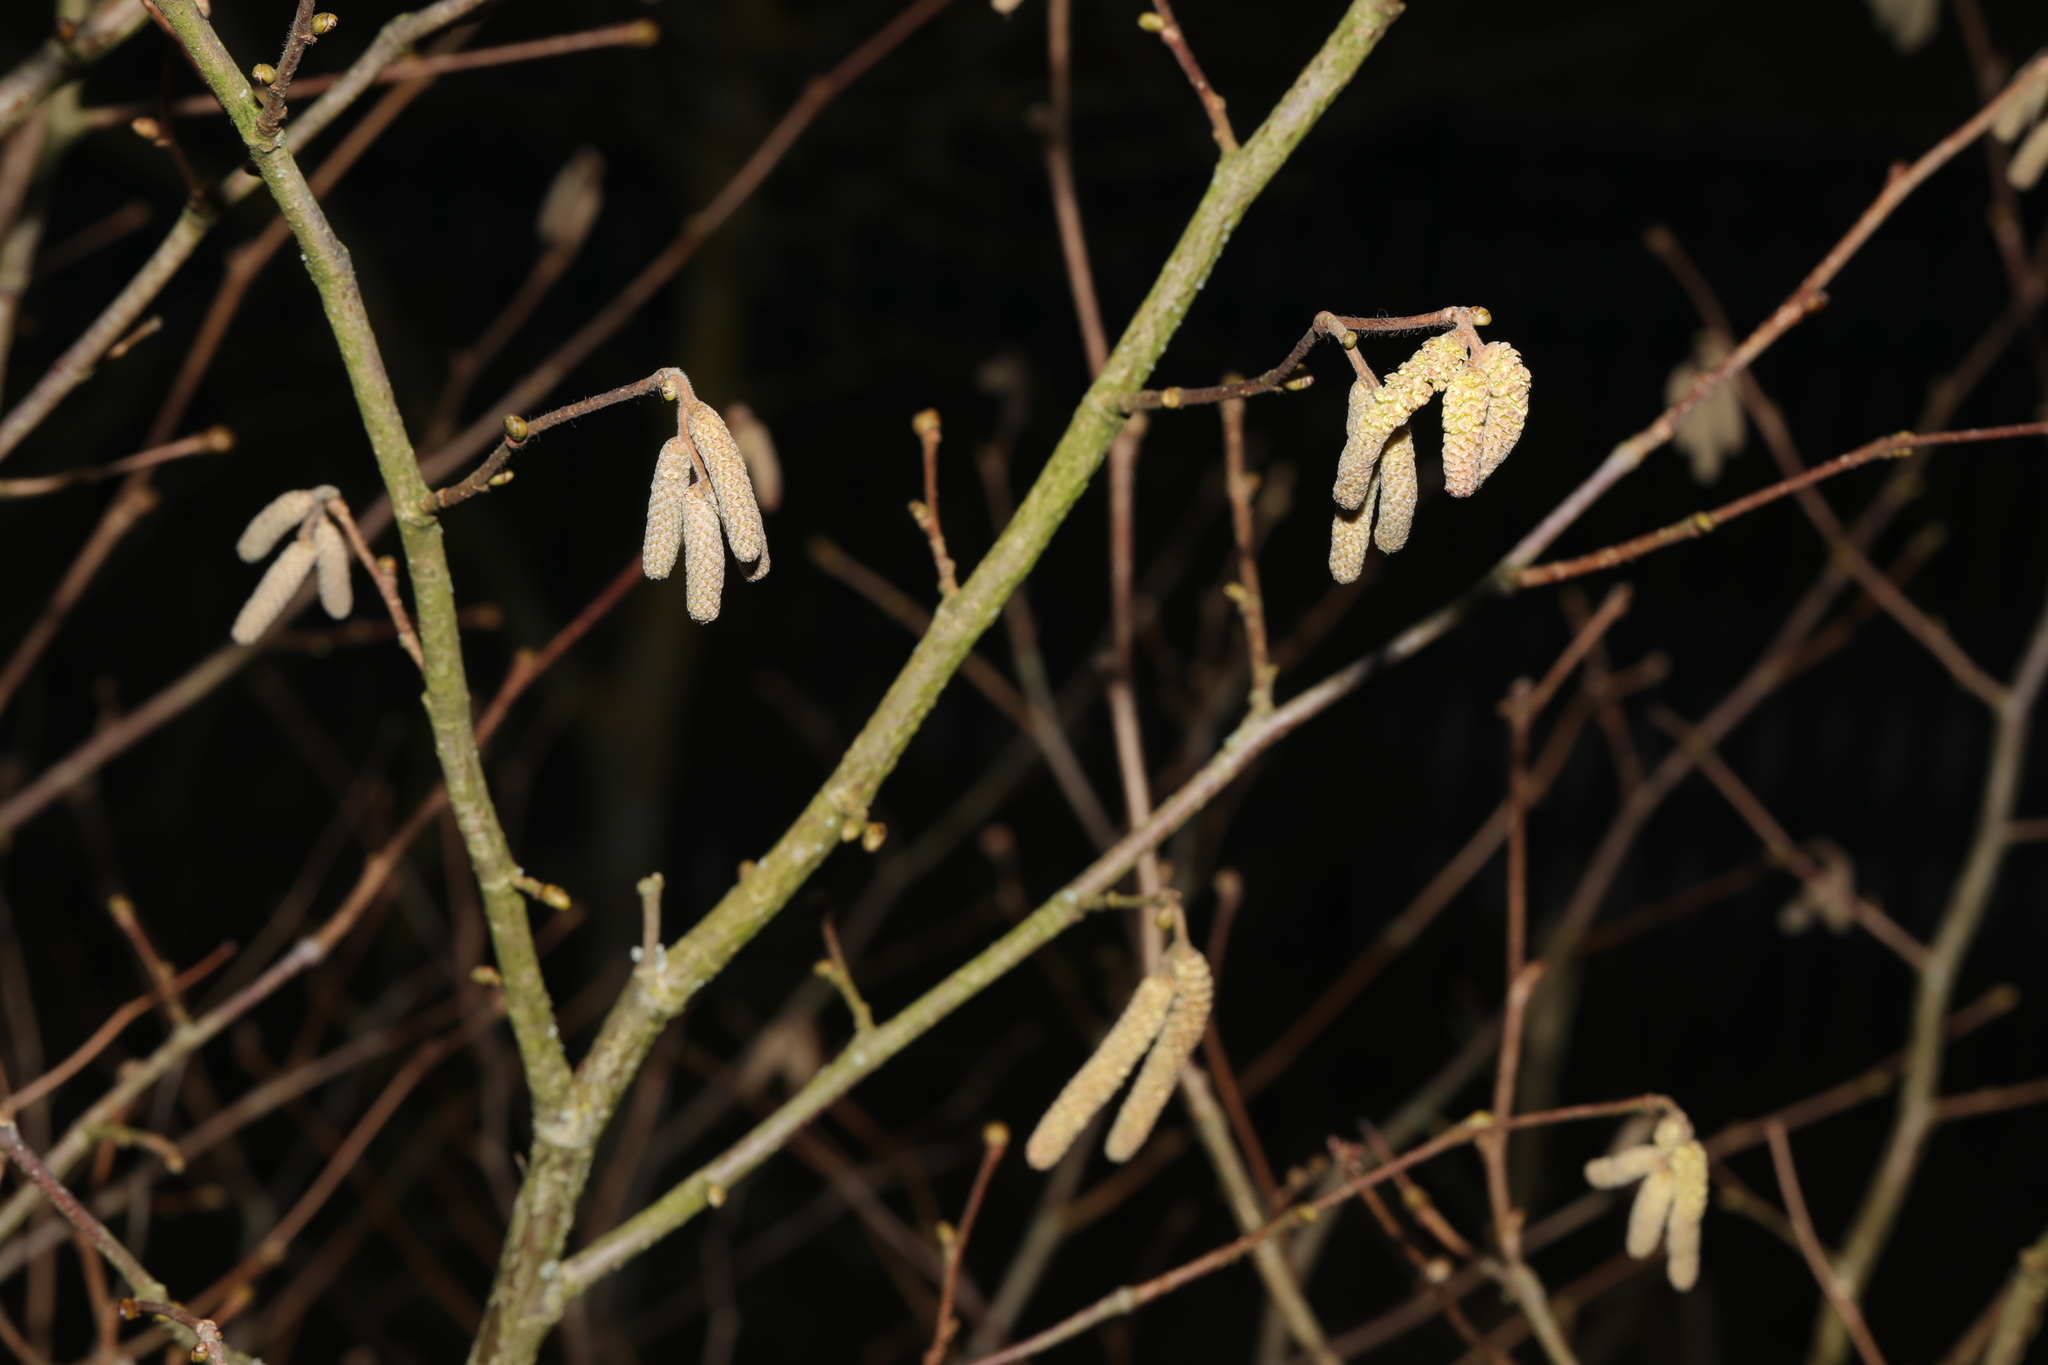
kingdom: Plantae
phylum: Tracheophyta
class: Magnoliopsida
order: Fagales
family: Betulaceae
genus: Corylus
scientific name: Corylus avellana
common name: European hazel
